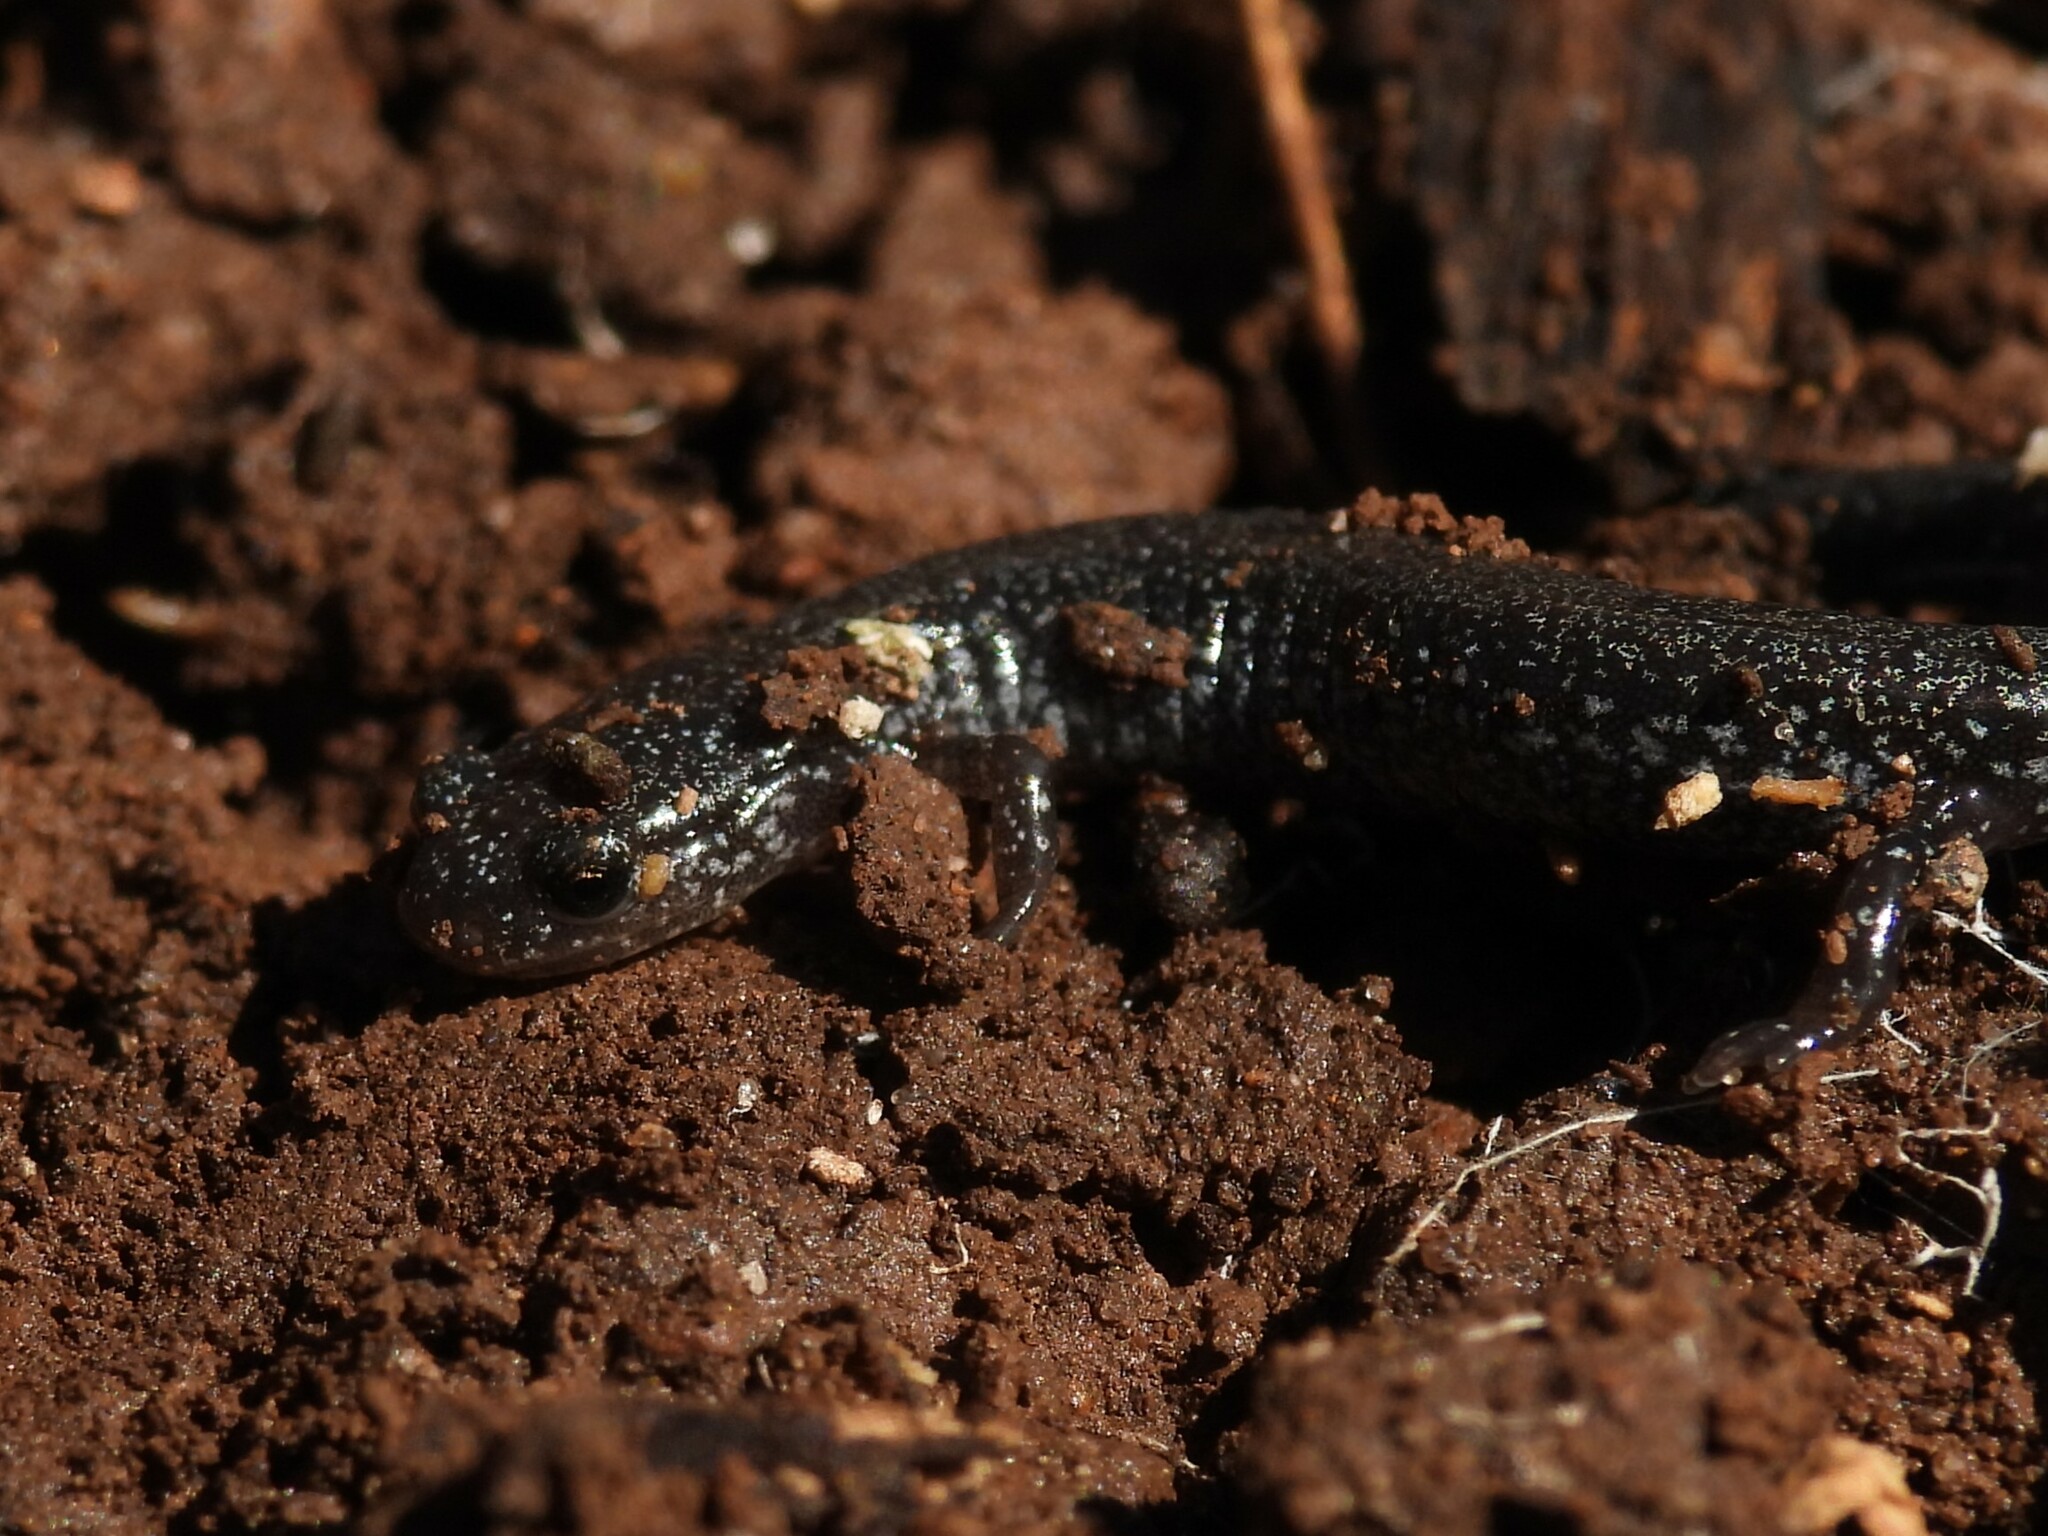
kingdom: Animalia
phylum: Chordata
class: Amphibia
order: Caudata
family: Plethodontidae
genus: Plethodon
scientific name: Plethodon cinereus
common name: Redback salamander
